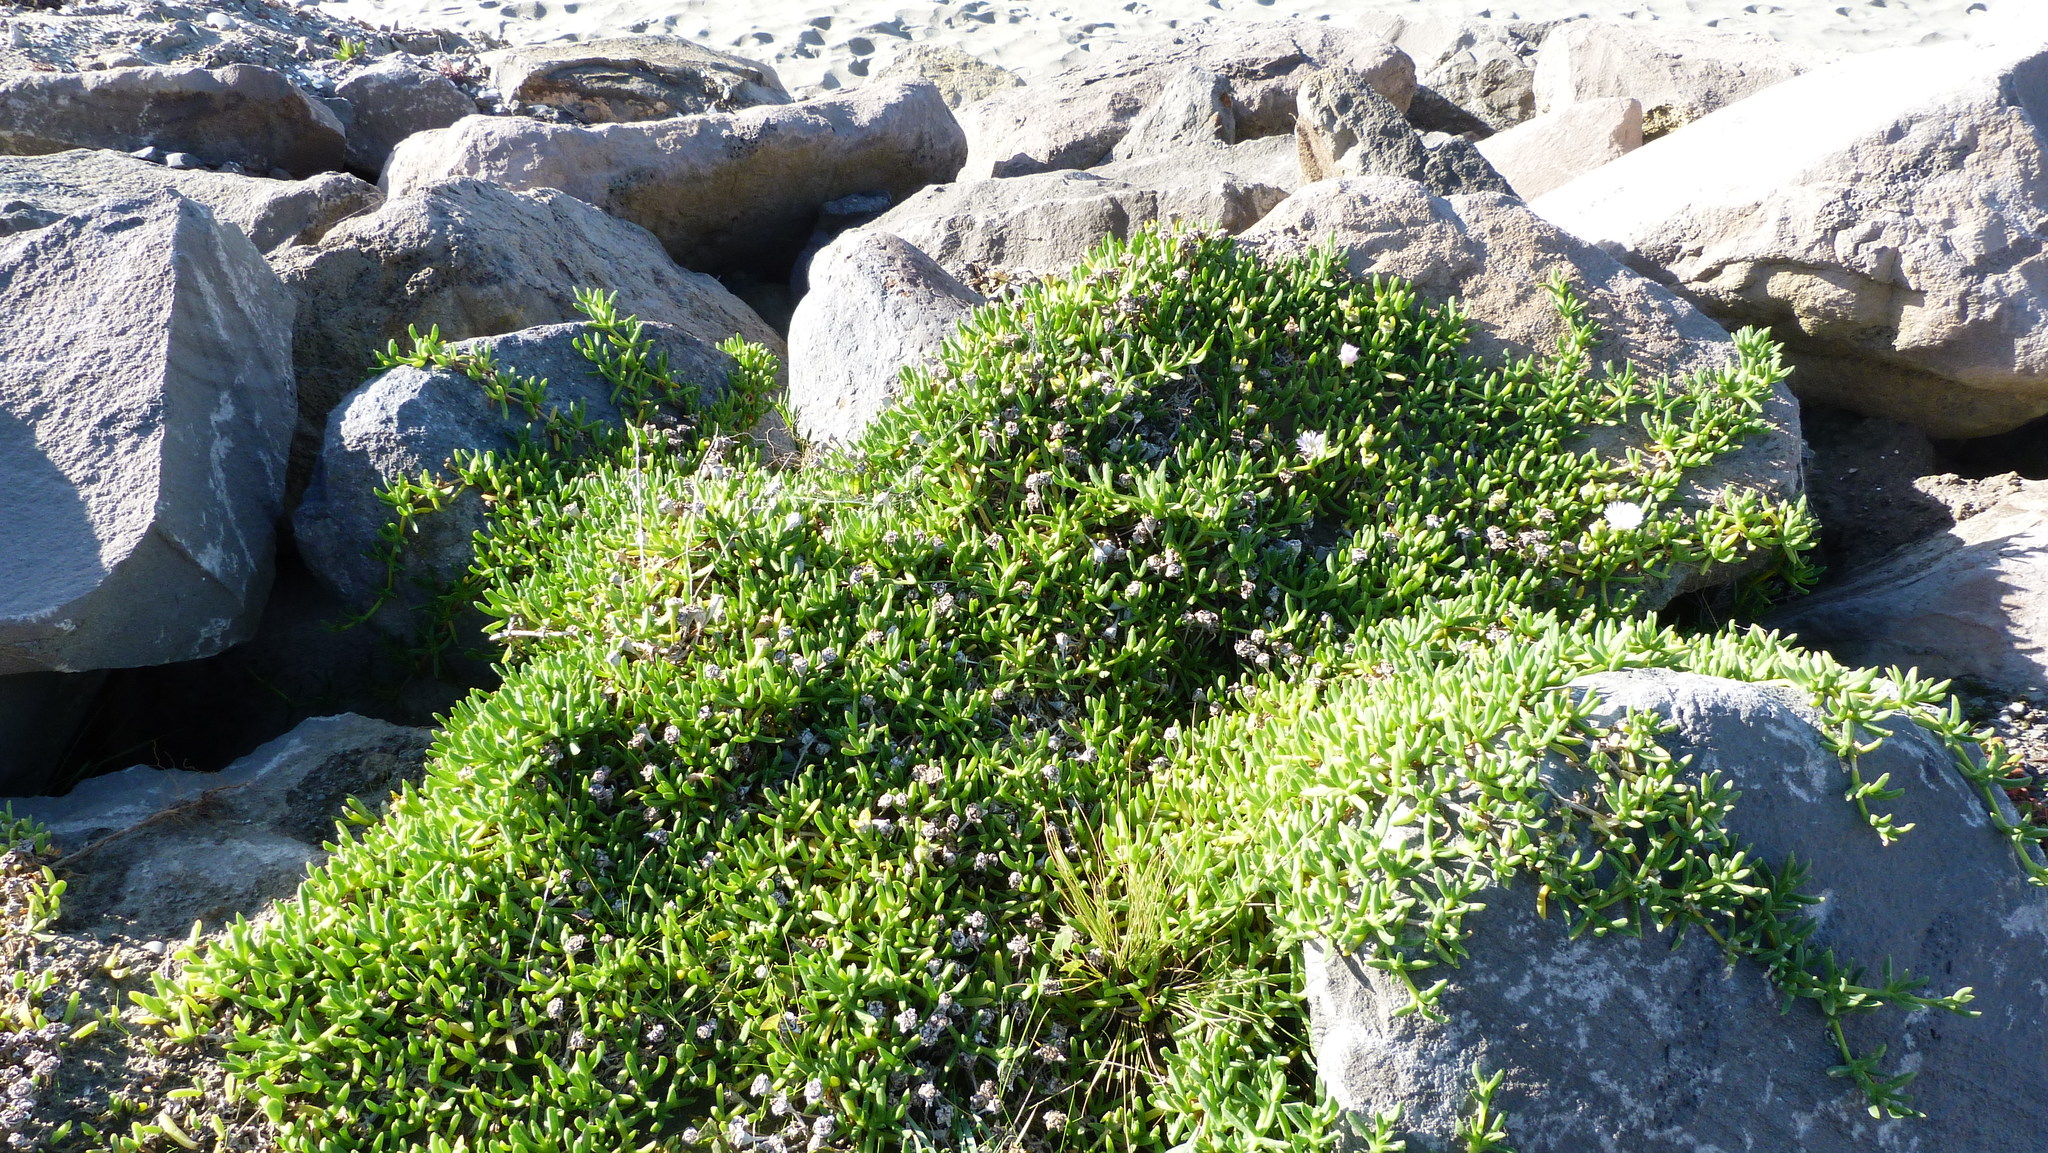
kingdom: Plantae
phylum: Tracheophyta
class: Magnoliopsida
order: Caryophyllales
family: Aizoaceae
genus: Disphyma
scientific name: Disphyma australe
